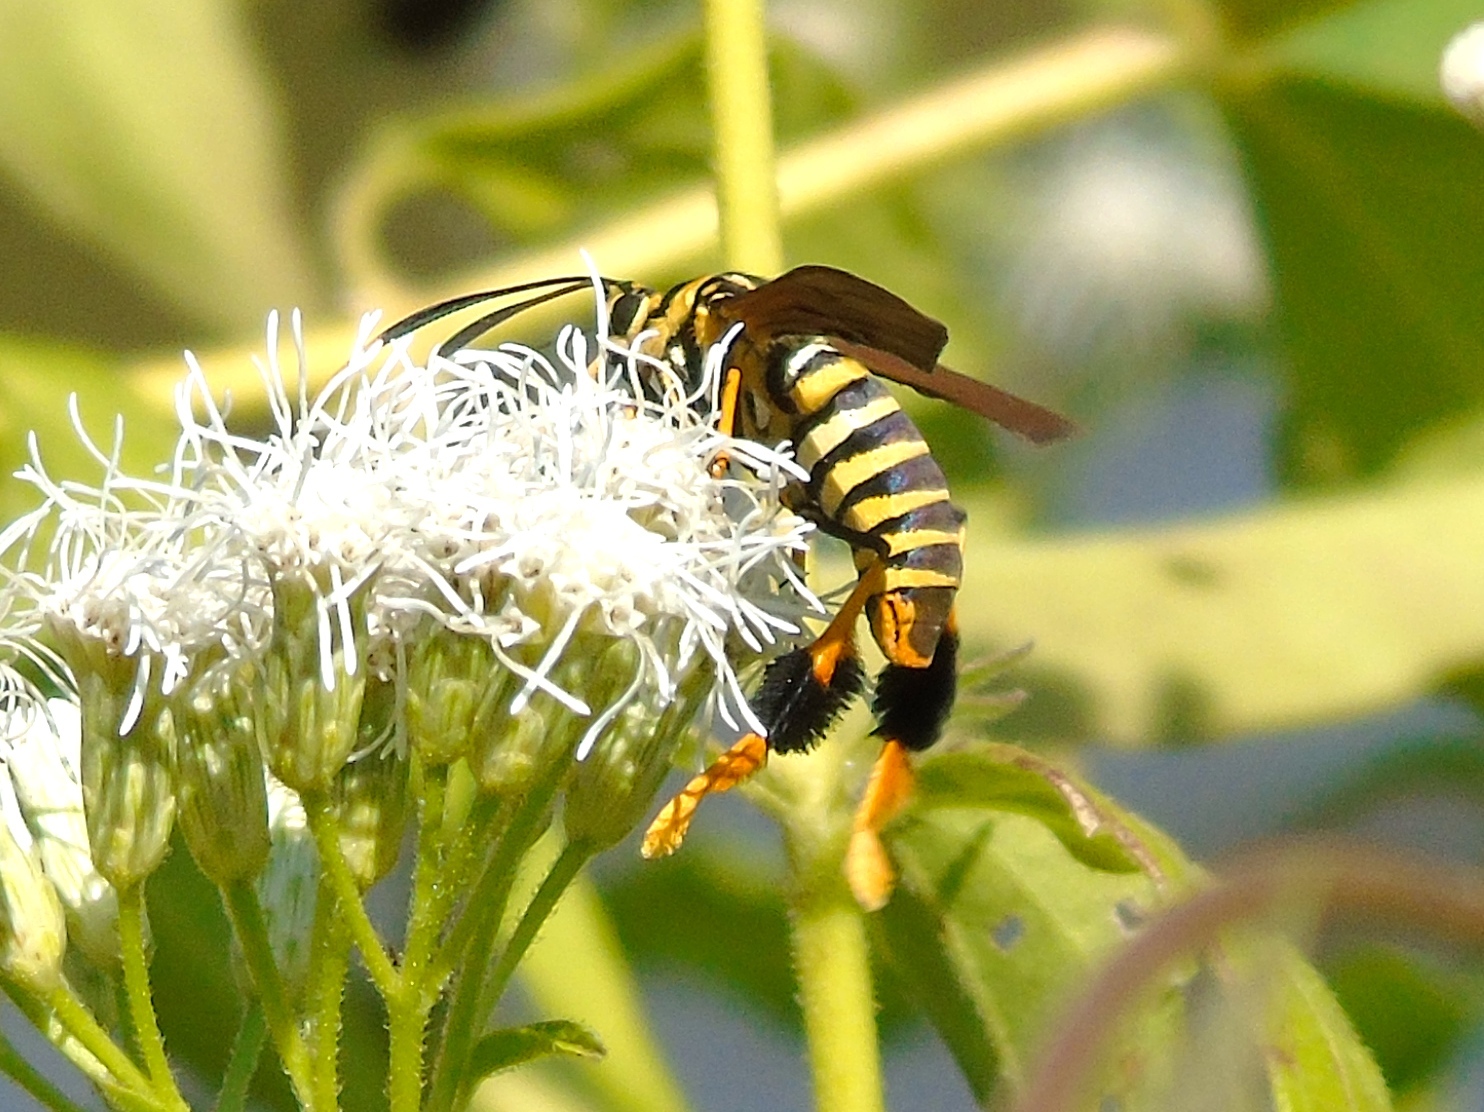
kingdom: Animalia
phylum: Arthropoda
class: Insecta
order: Lepidoptera
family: Erebidae
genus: Horama
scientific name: Horama panthalon
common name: Texas wasp moth
